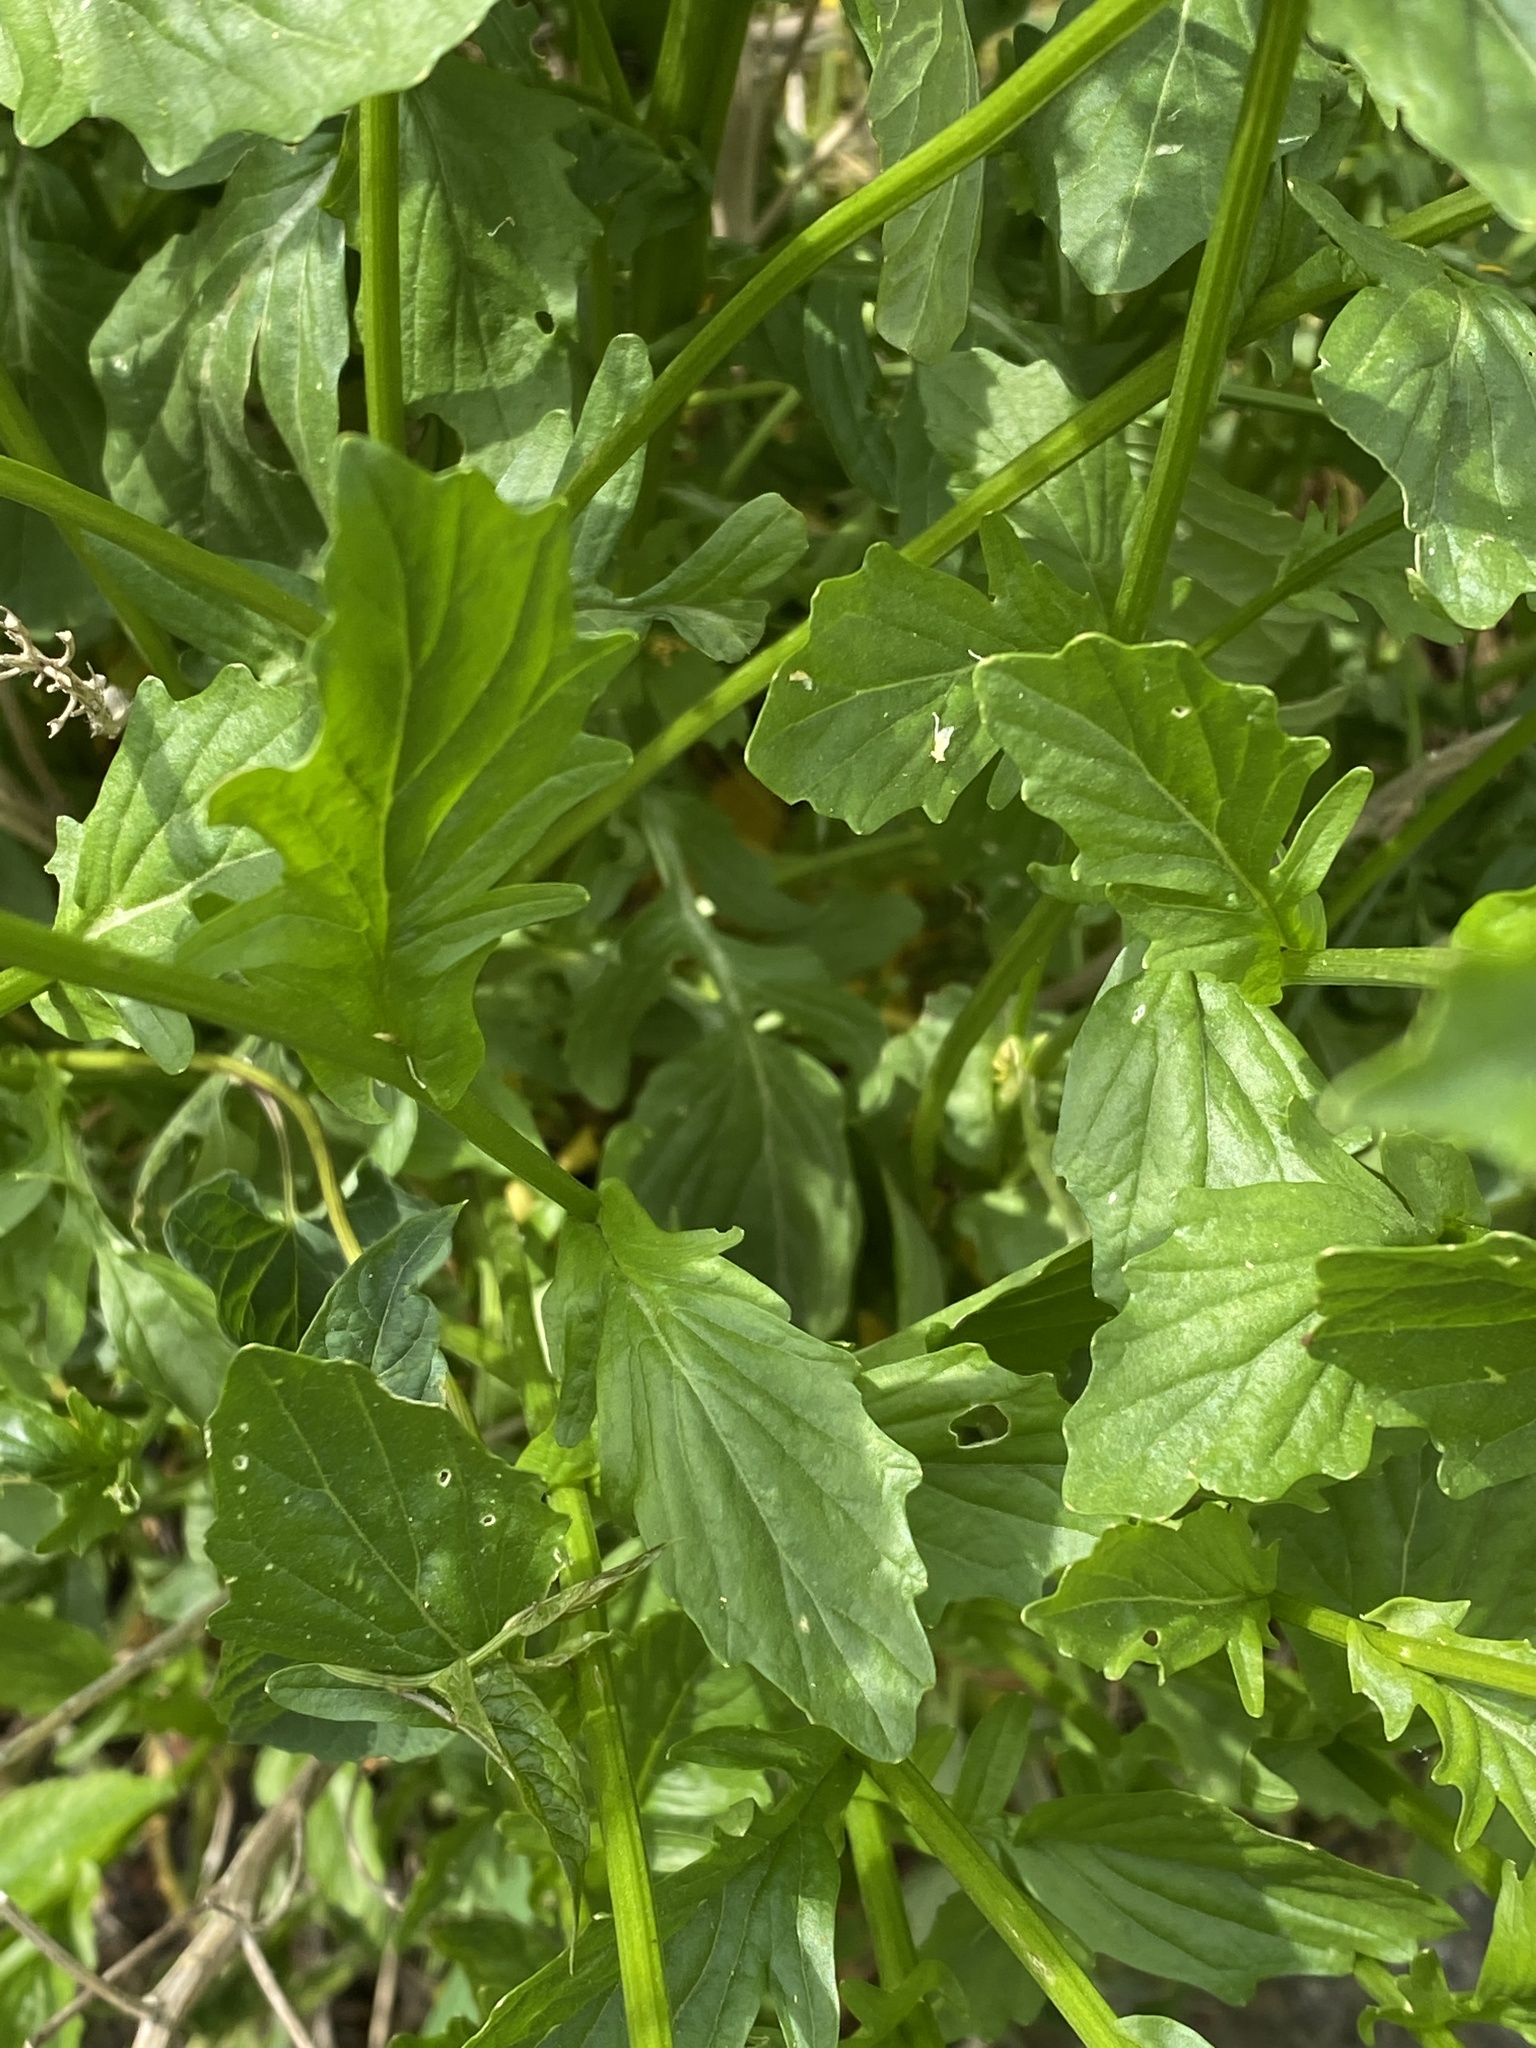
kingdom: Plantae
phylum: Tracheophyta
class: Magnoliopsida
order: Brassicales
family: Brassicaceae
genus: Barbarea
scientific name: Barbarea vulgaris
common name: Cressy-greens
